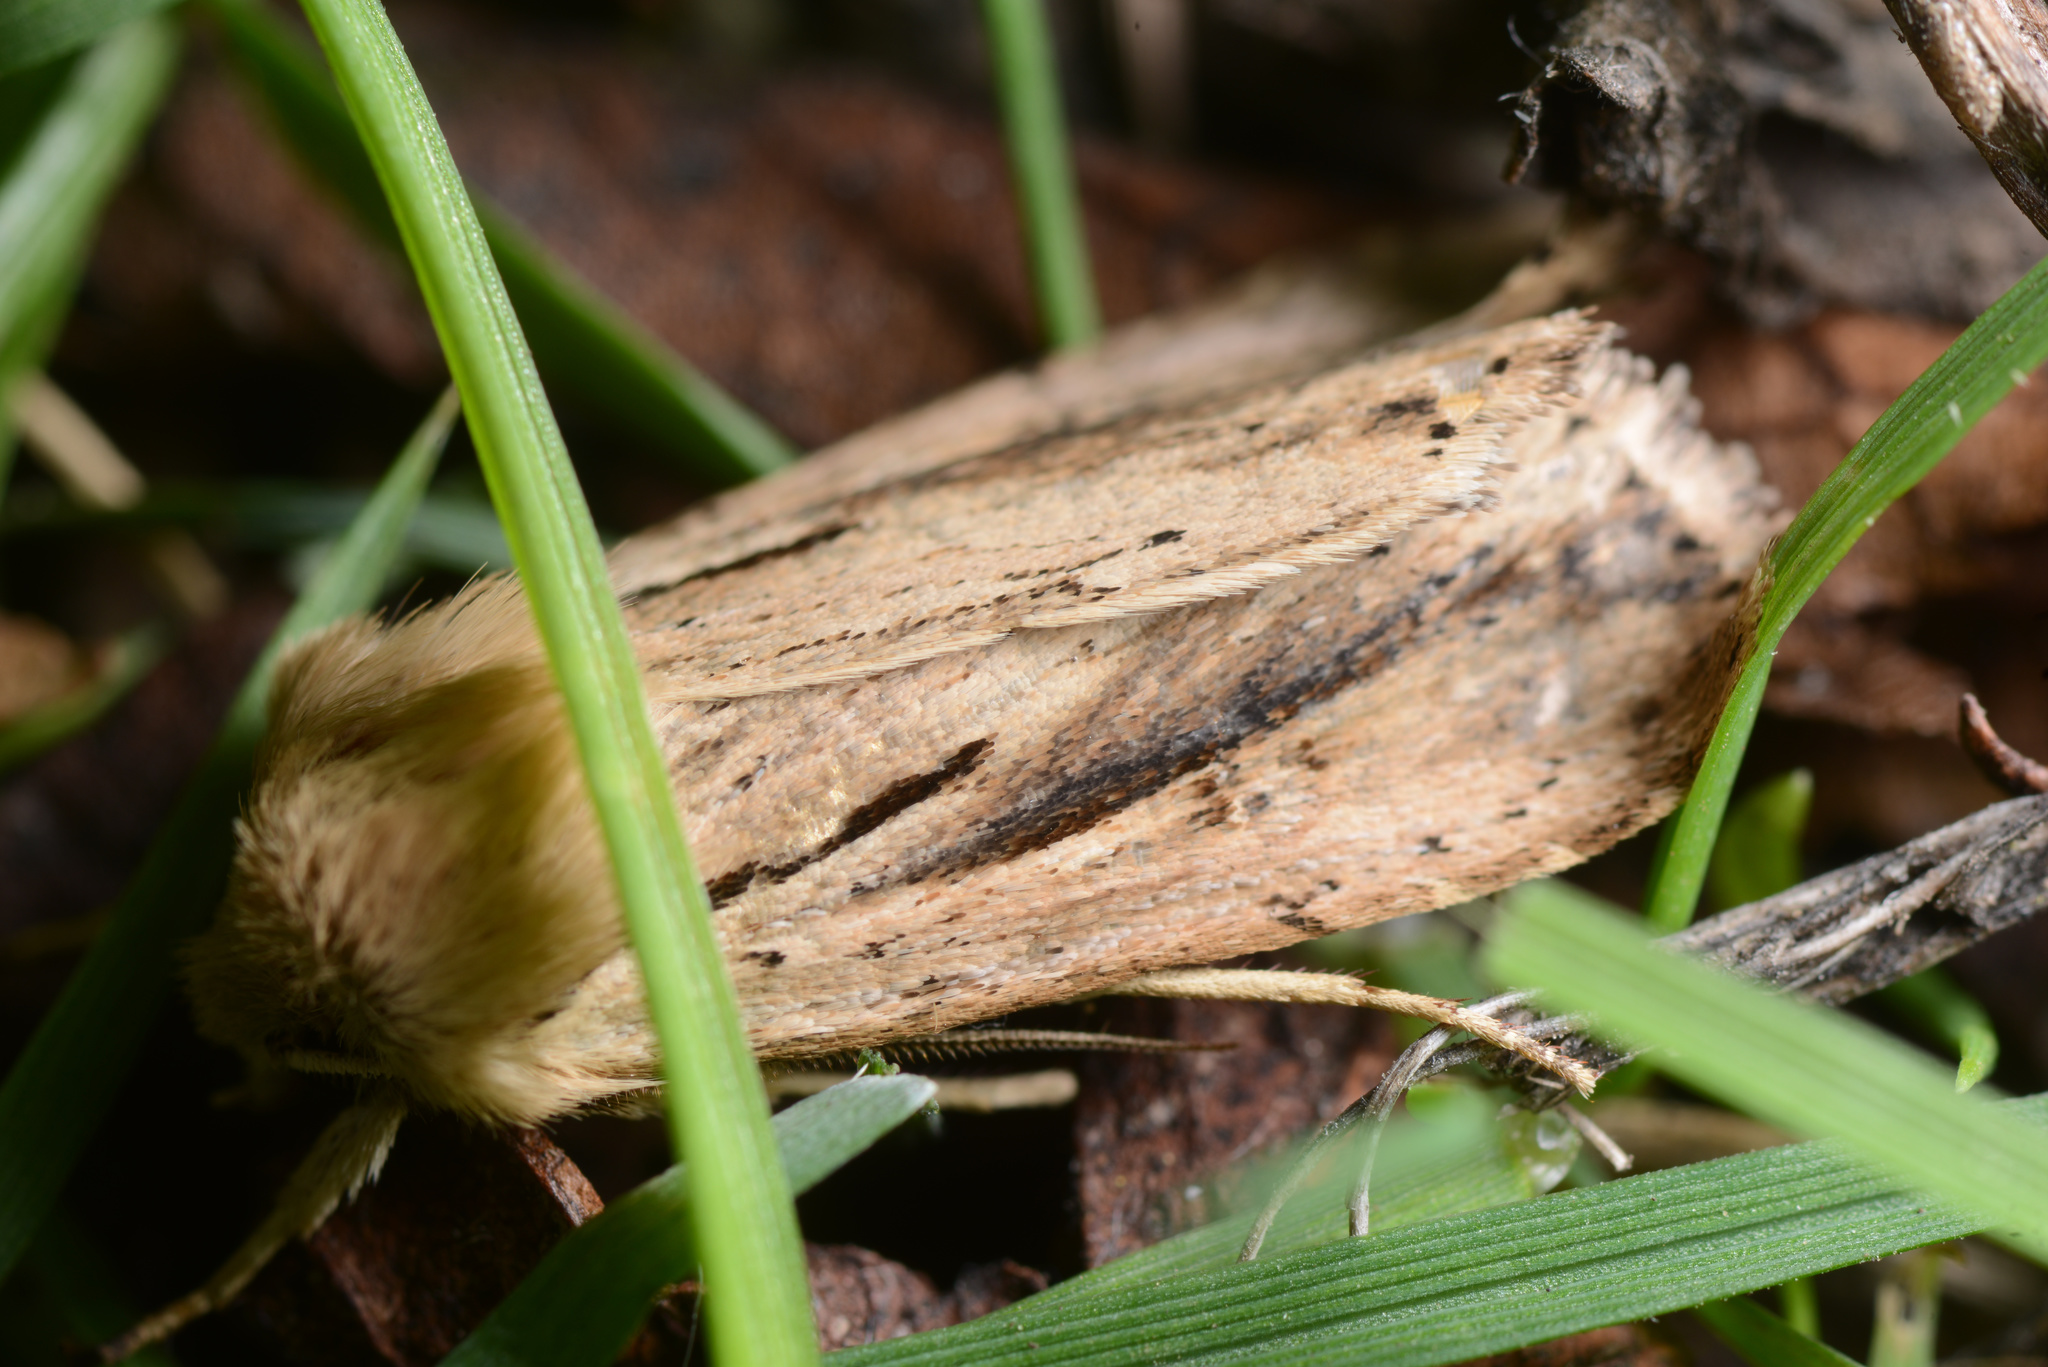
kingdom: Animalia
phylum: Arthropoda
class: Insecta
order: Lepidoptera
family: Noctuidae
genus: Ichneutica
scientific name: Ichneutica propria
